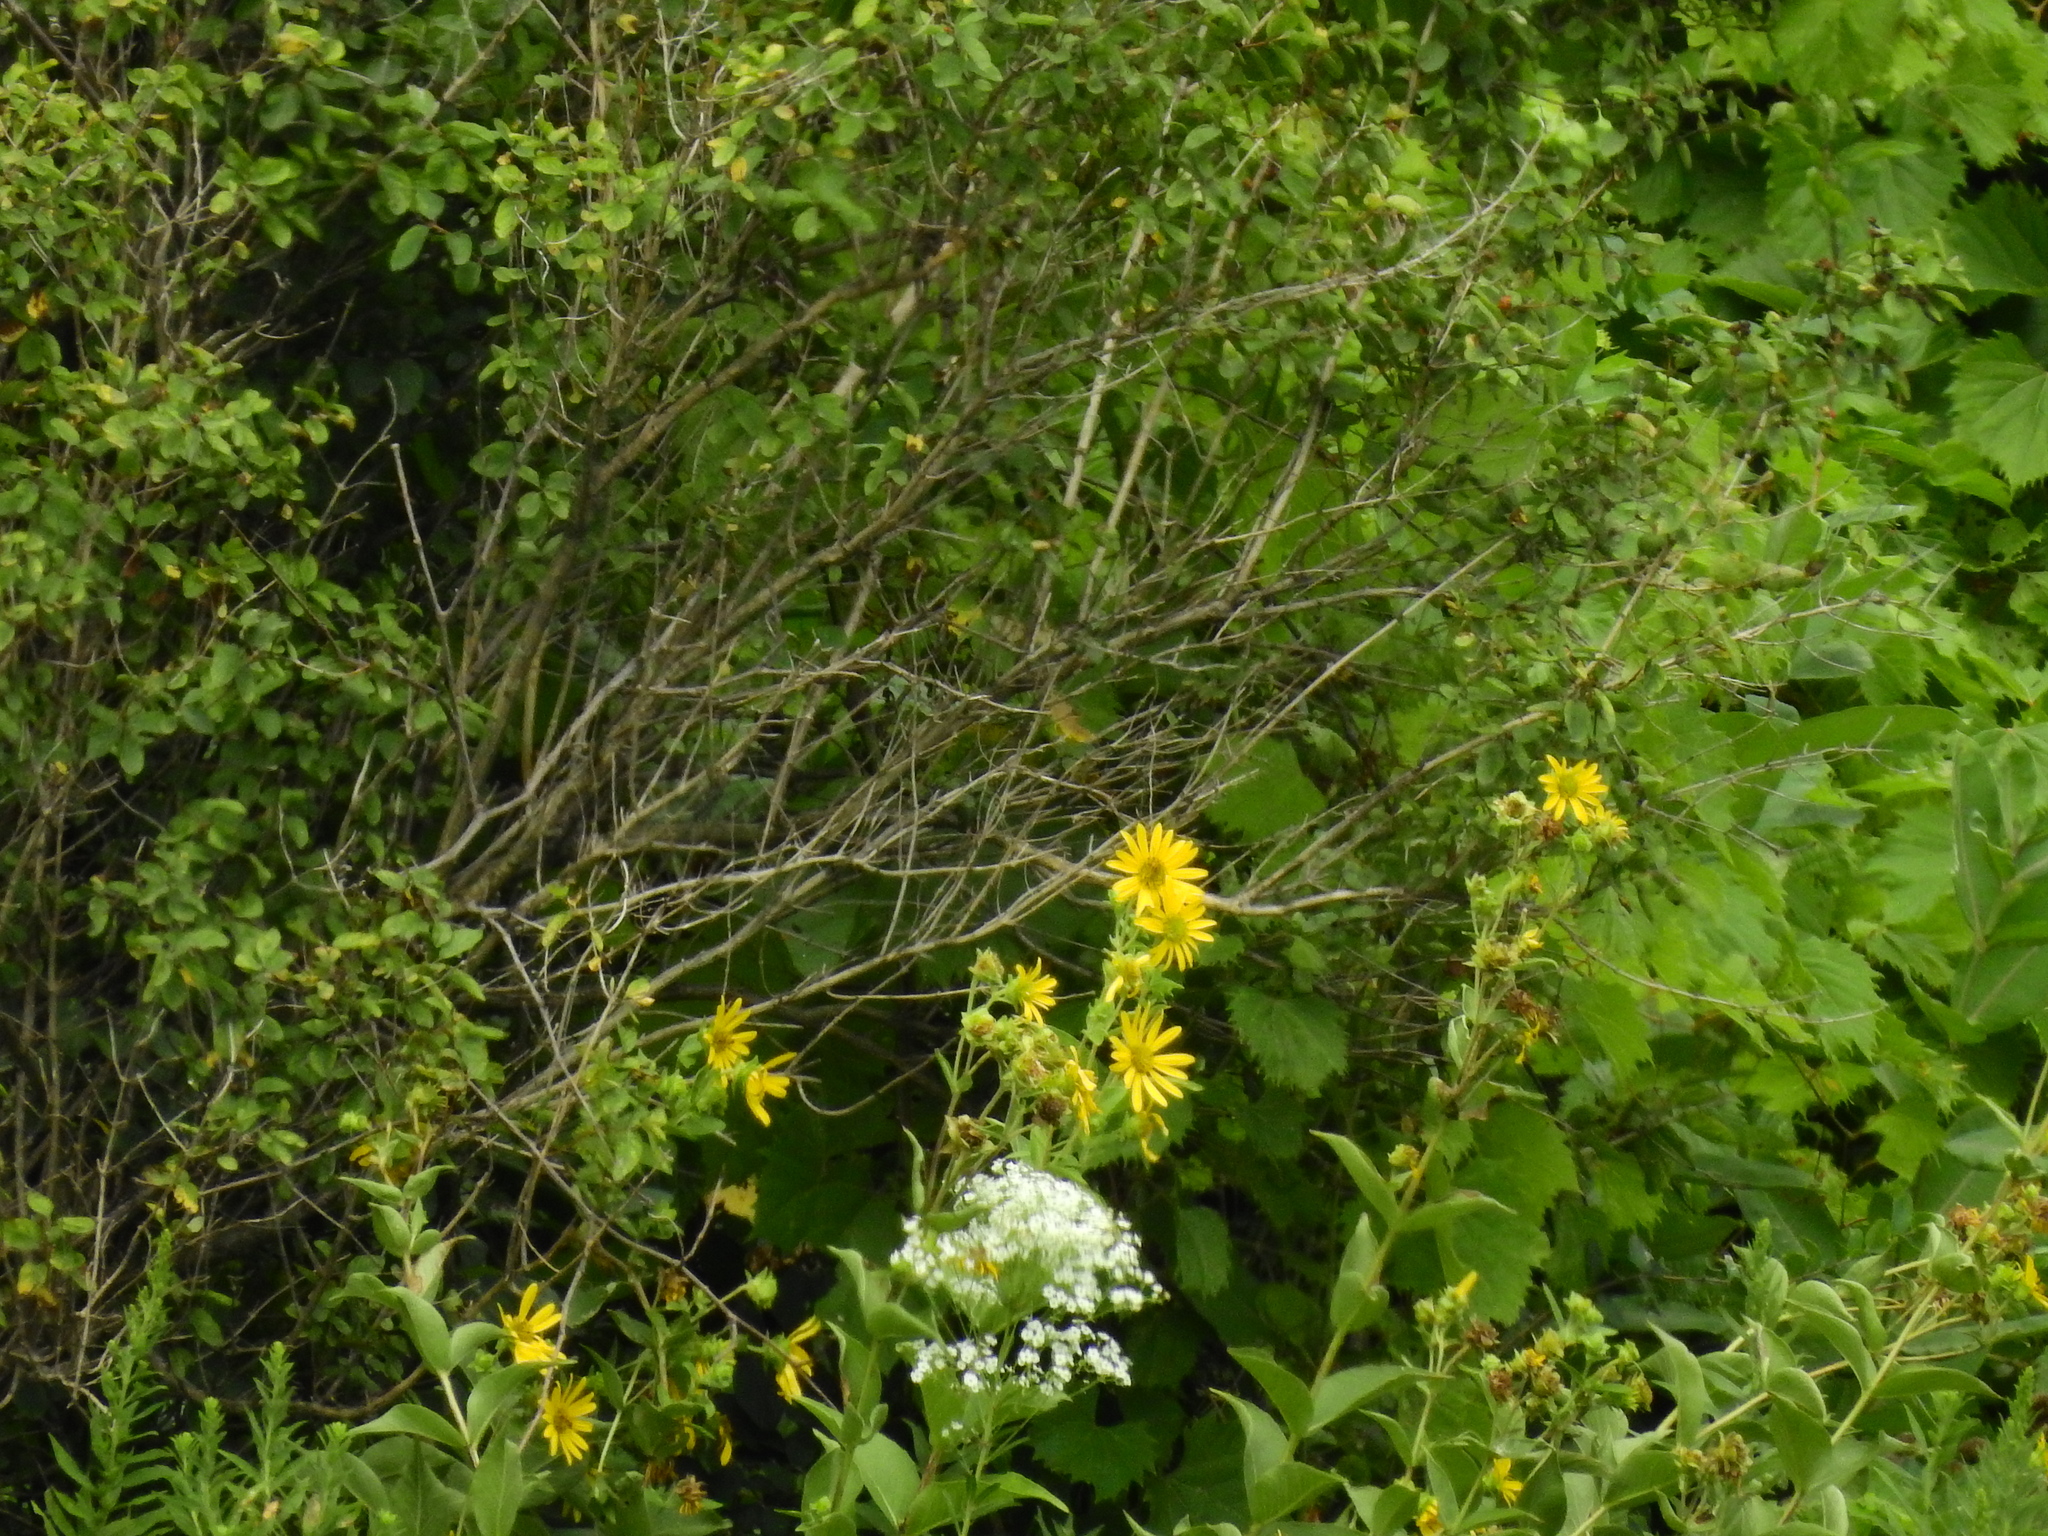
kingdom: Plantae
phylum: Tracheophyta
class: Magnoliopsida
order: Asterales
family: Asteraceae
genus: Silphium
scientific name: Silphium perfoliatum
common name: Cup-plant
